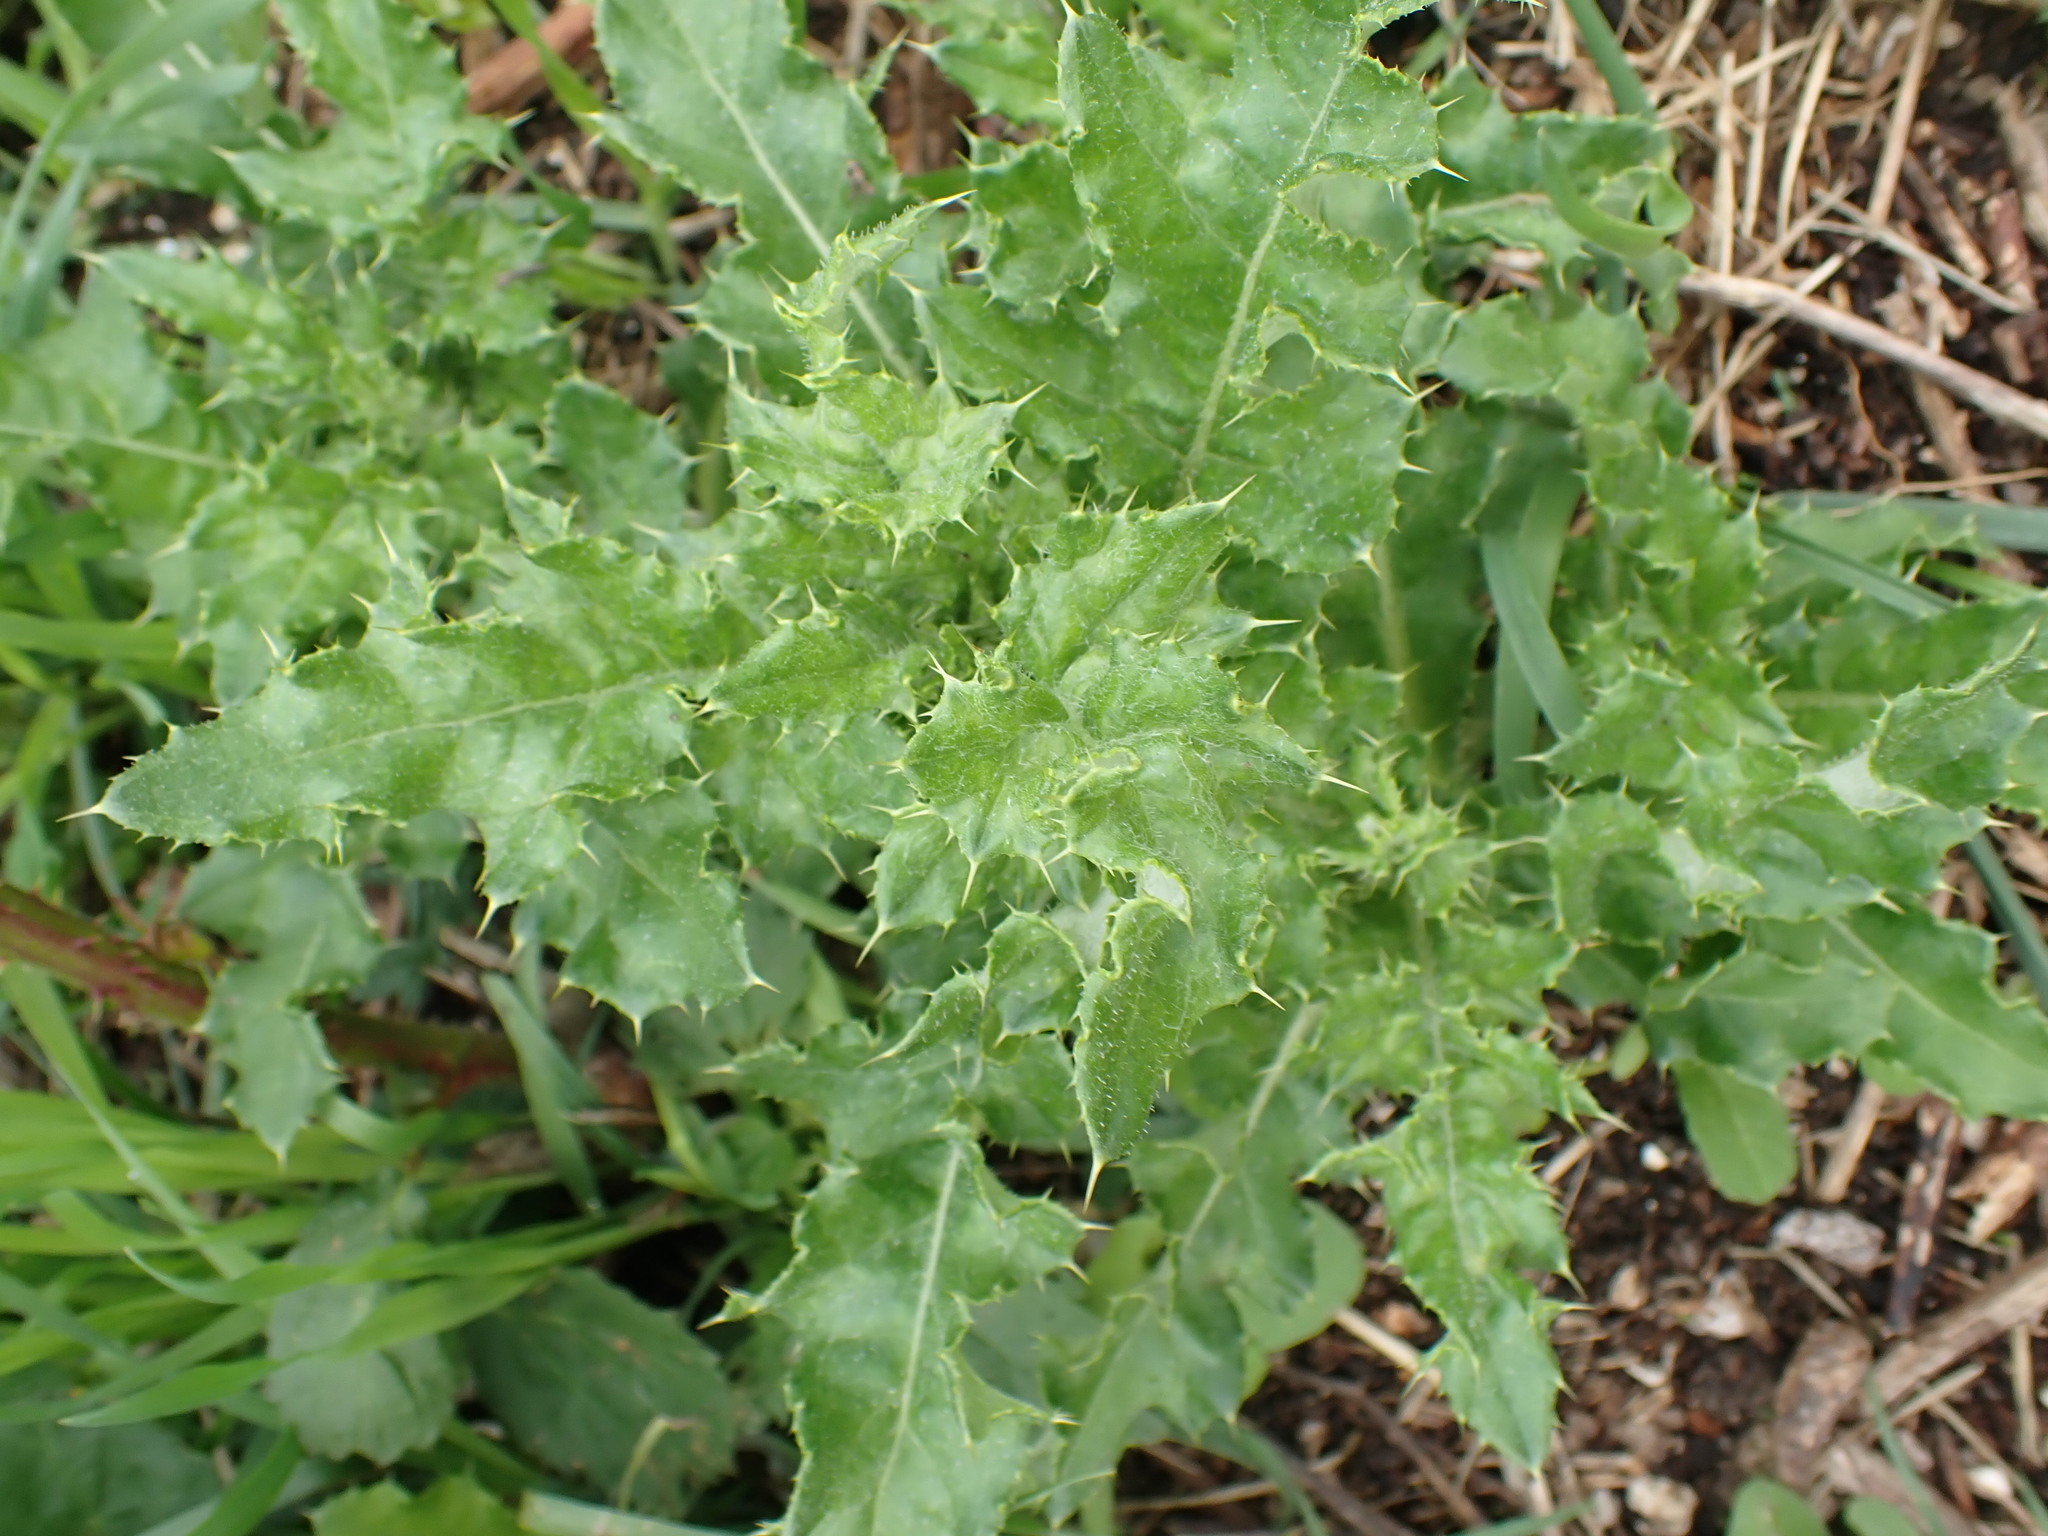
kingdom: Plantae
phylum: Tracheophyta
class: Magnoliopsida
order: Asterales
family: Asteraceae
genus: Cirsium
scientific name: Cirsium arvense
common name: Creeping thistle
